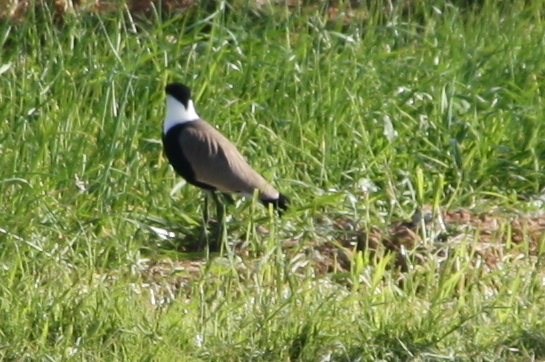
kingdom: Animalia
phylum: Chordata
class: Aves
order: Charadriiformes
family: Charadriidae
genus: Vanellus
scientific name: Vanellus spinosus
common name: Spur-winged lapwing
